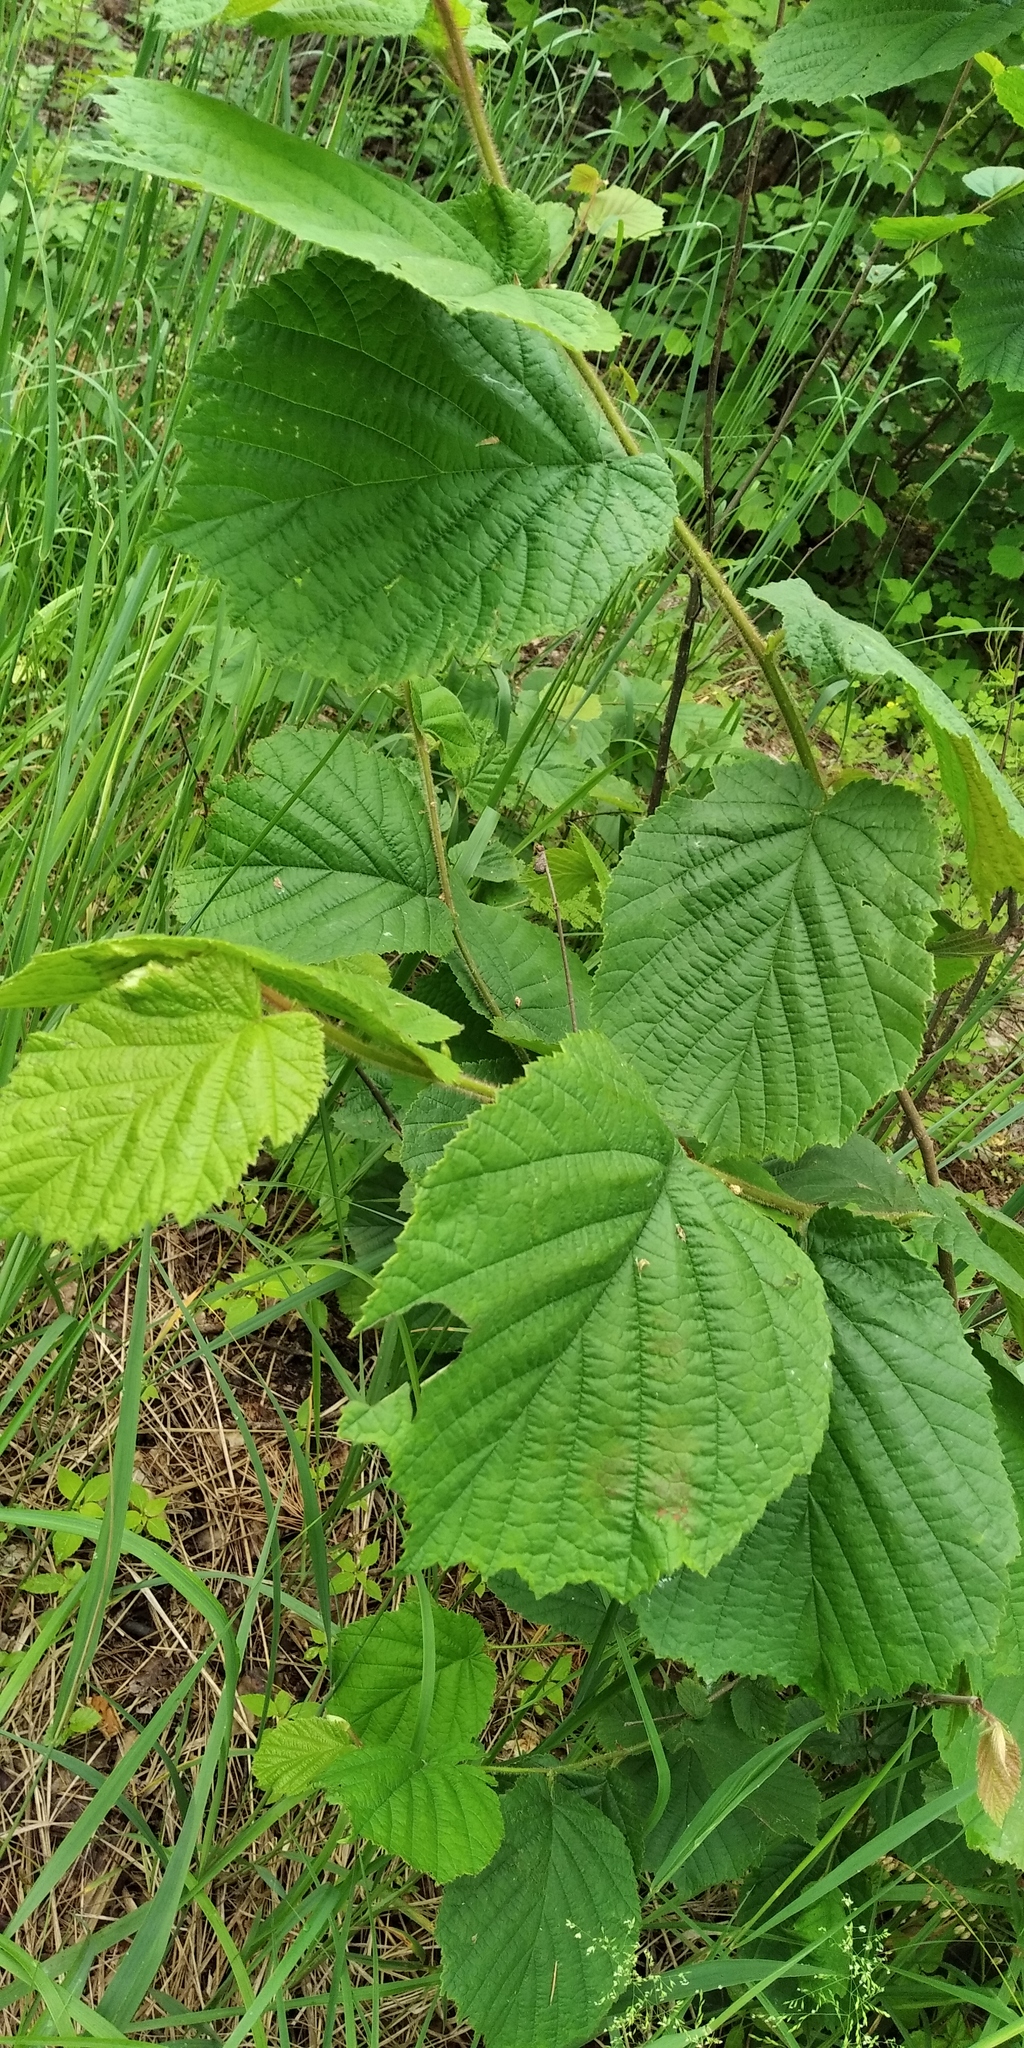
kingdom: Plantae
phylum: Tracheophyta
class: Magnoliopsida
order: Fagales
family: Betulaceae
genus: Corylus
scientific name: Corylus avellana
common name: European hazel
